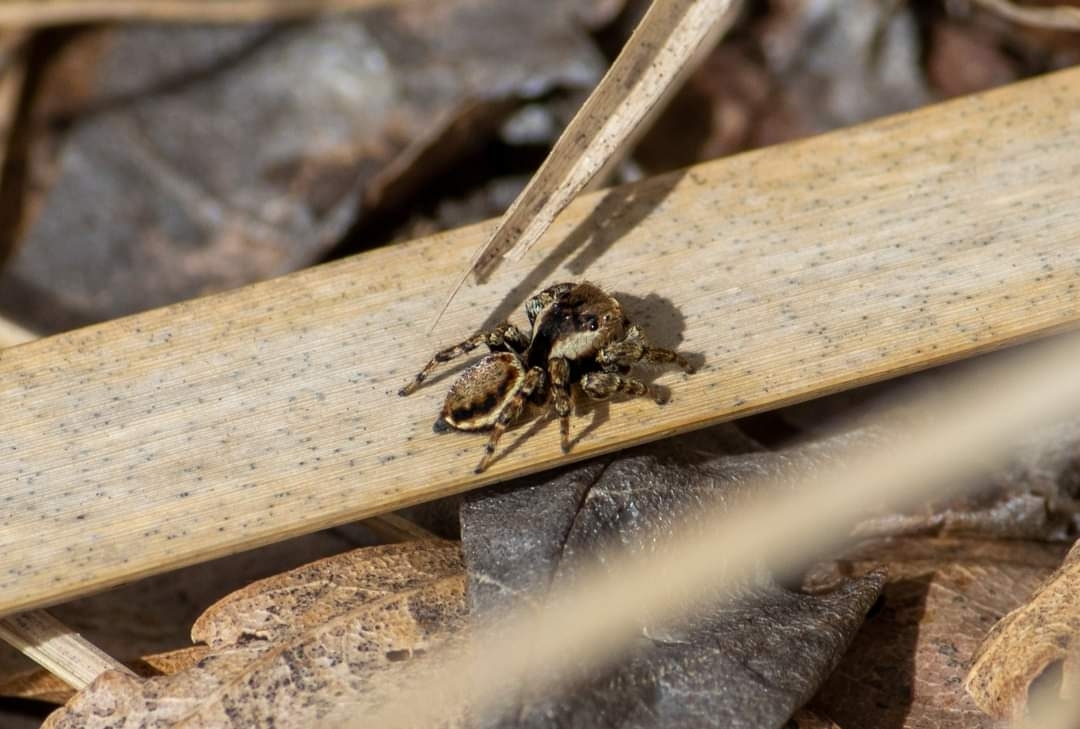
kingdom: Animalia
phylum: Arthropoda
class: Arachnida
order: Araneae
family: Salticidae
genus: Evarcha
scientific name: Evarcha falcata
